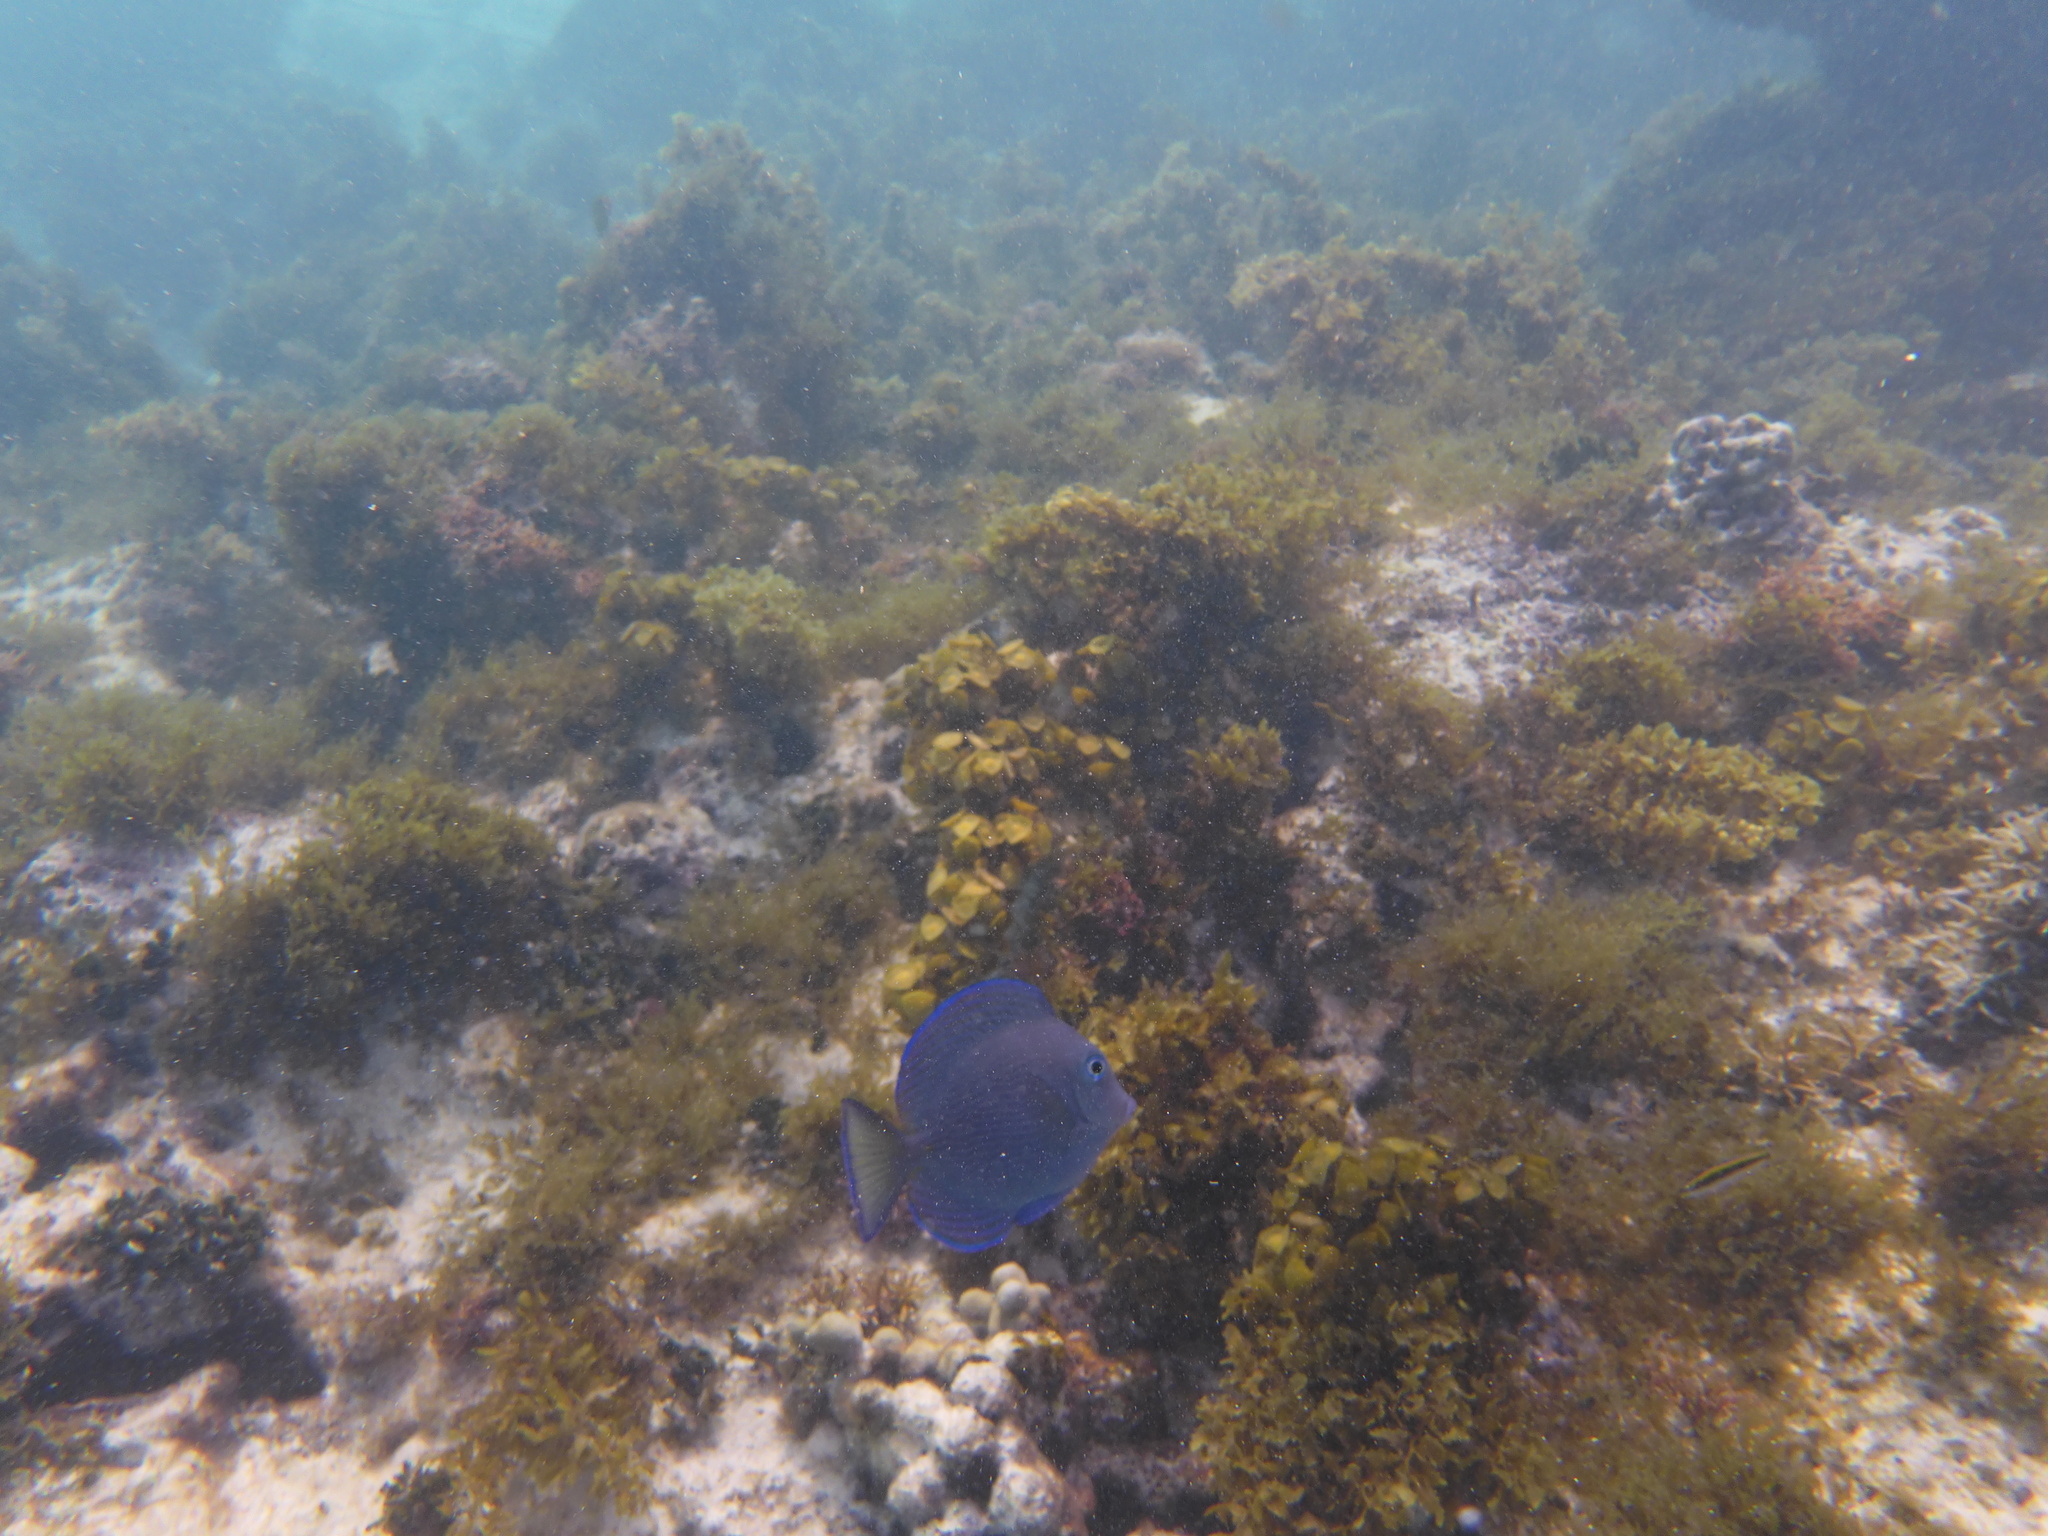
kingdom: Animalia
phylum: Chordata
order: Perciformes
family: Acanthuridae
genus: Acanthurus
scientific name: Acanthurus coeruleus
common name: Blue tang
